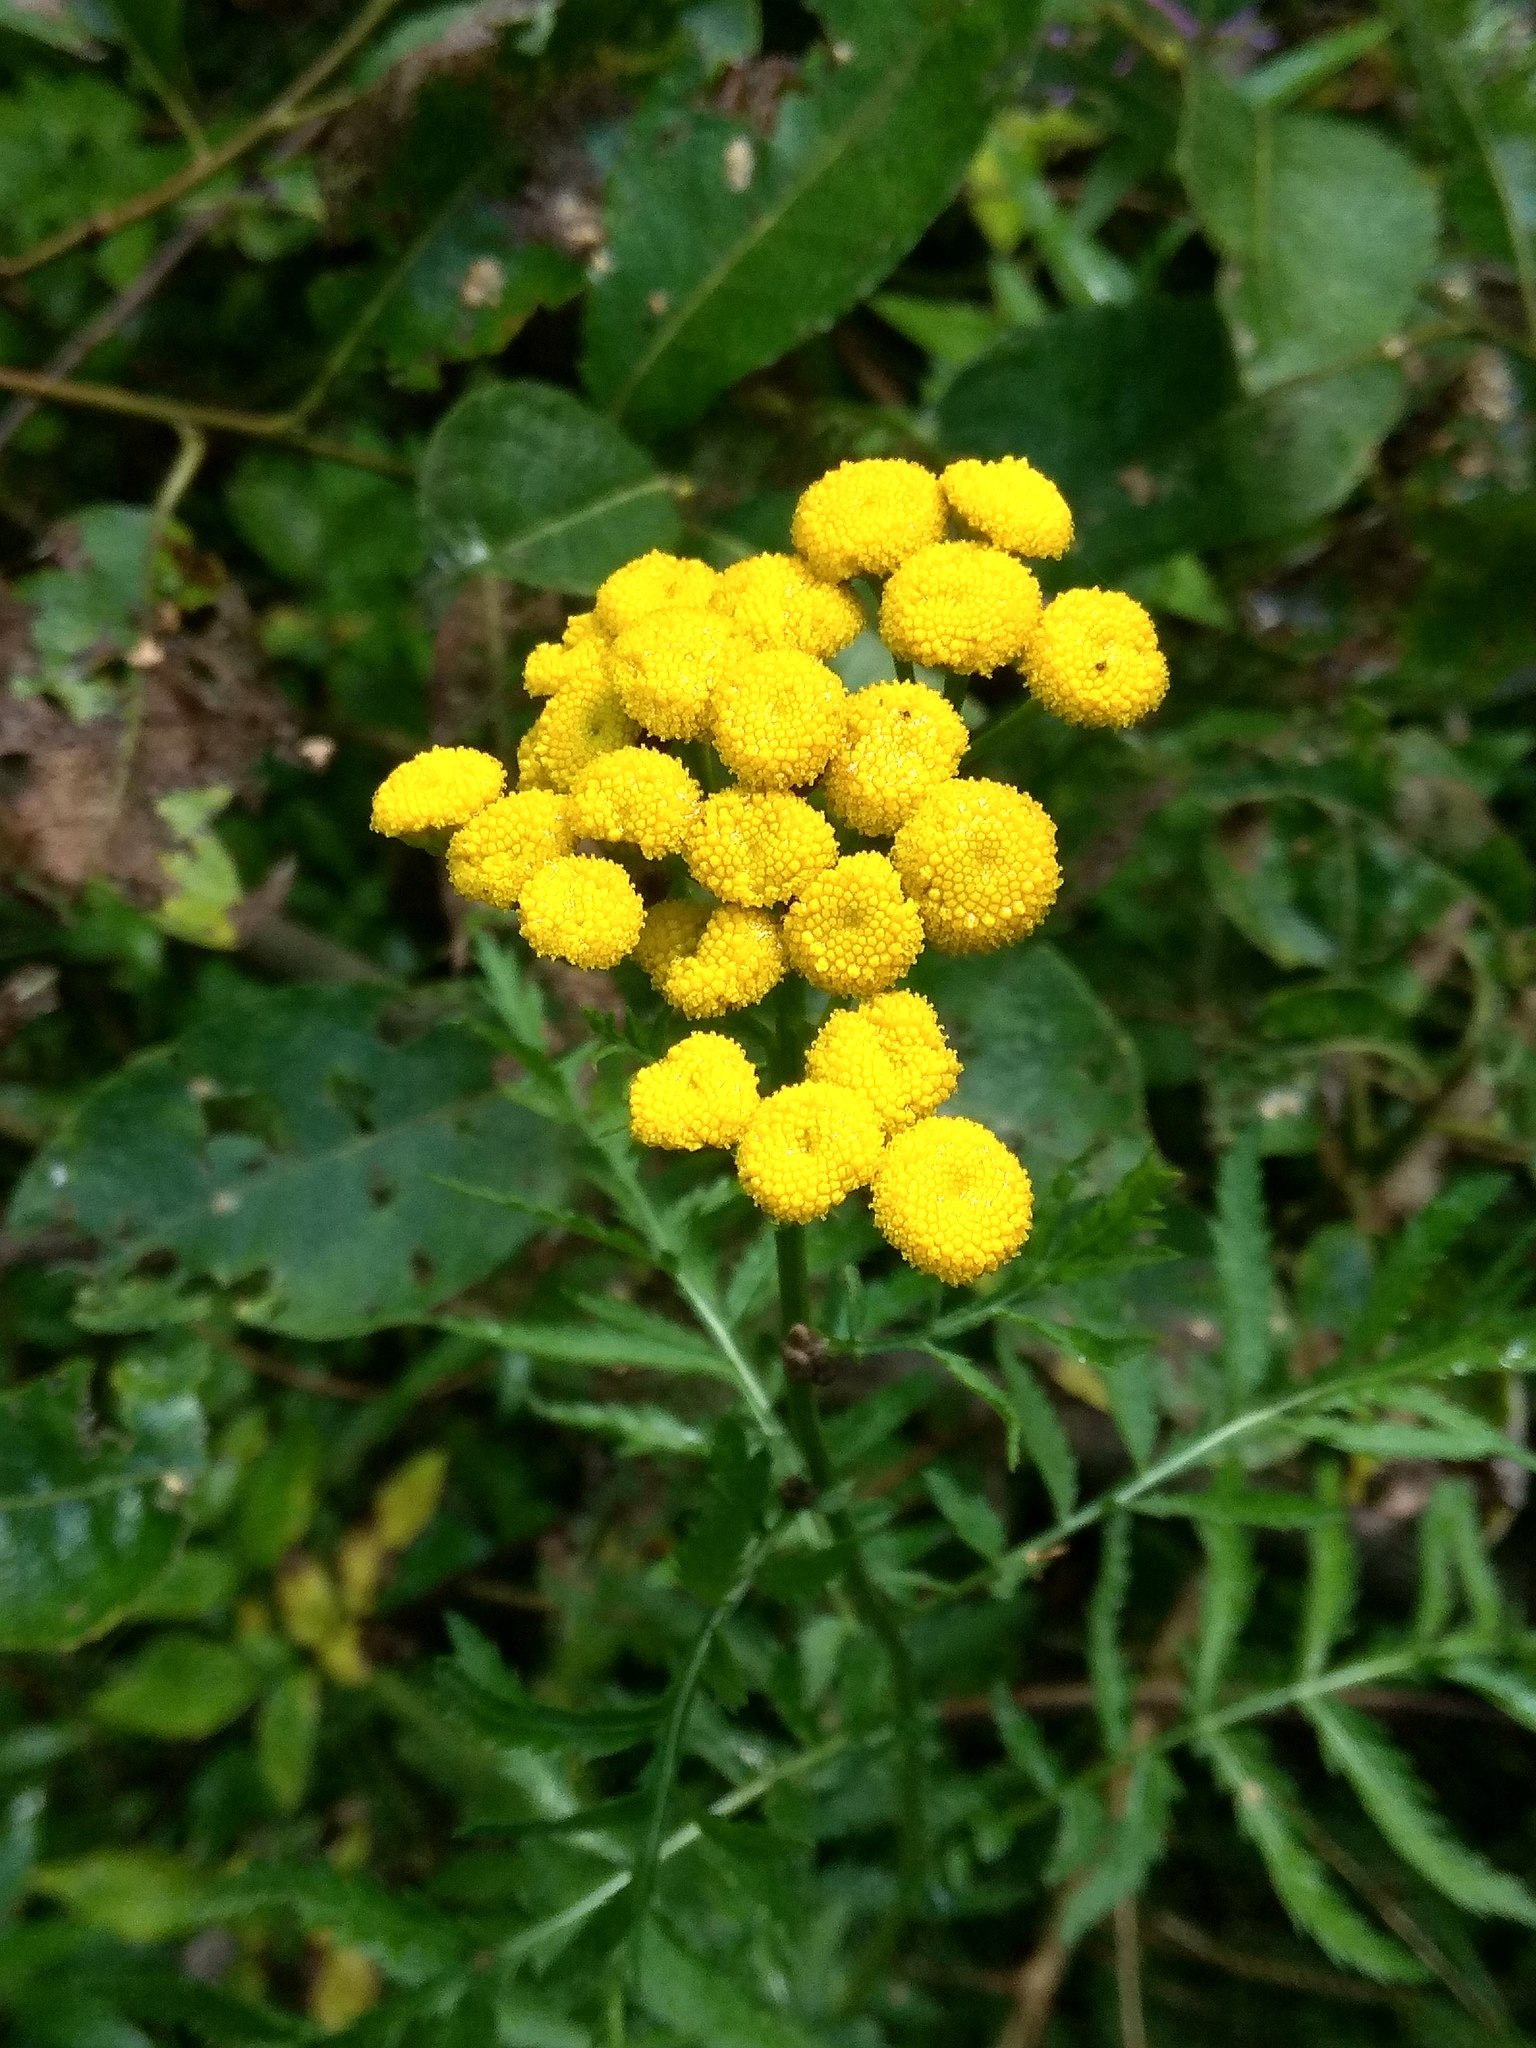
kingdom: Plantae
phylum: Tracheophyta
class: Magnoliopsida
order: Asterales
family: Asteraceae
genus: Tanacetum
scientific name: Tanacetum vulgare
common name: Common tansy
